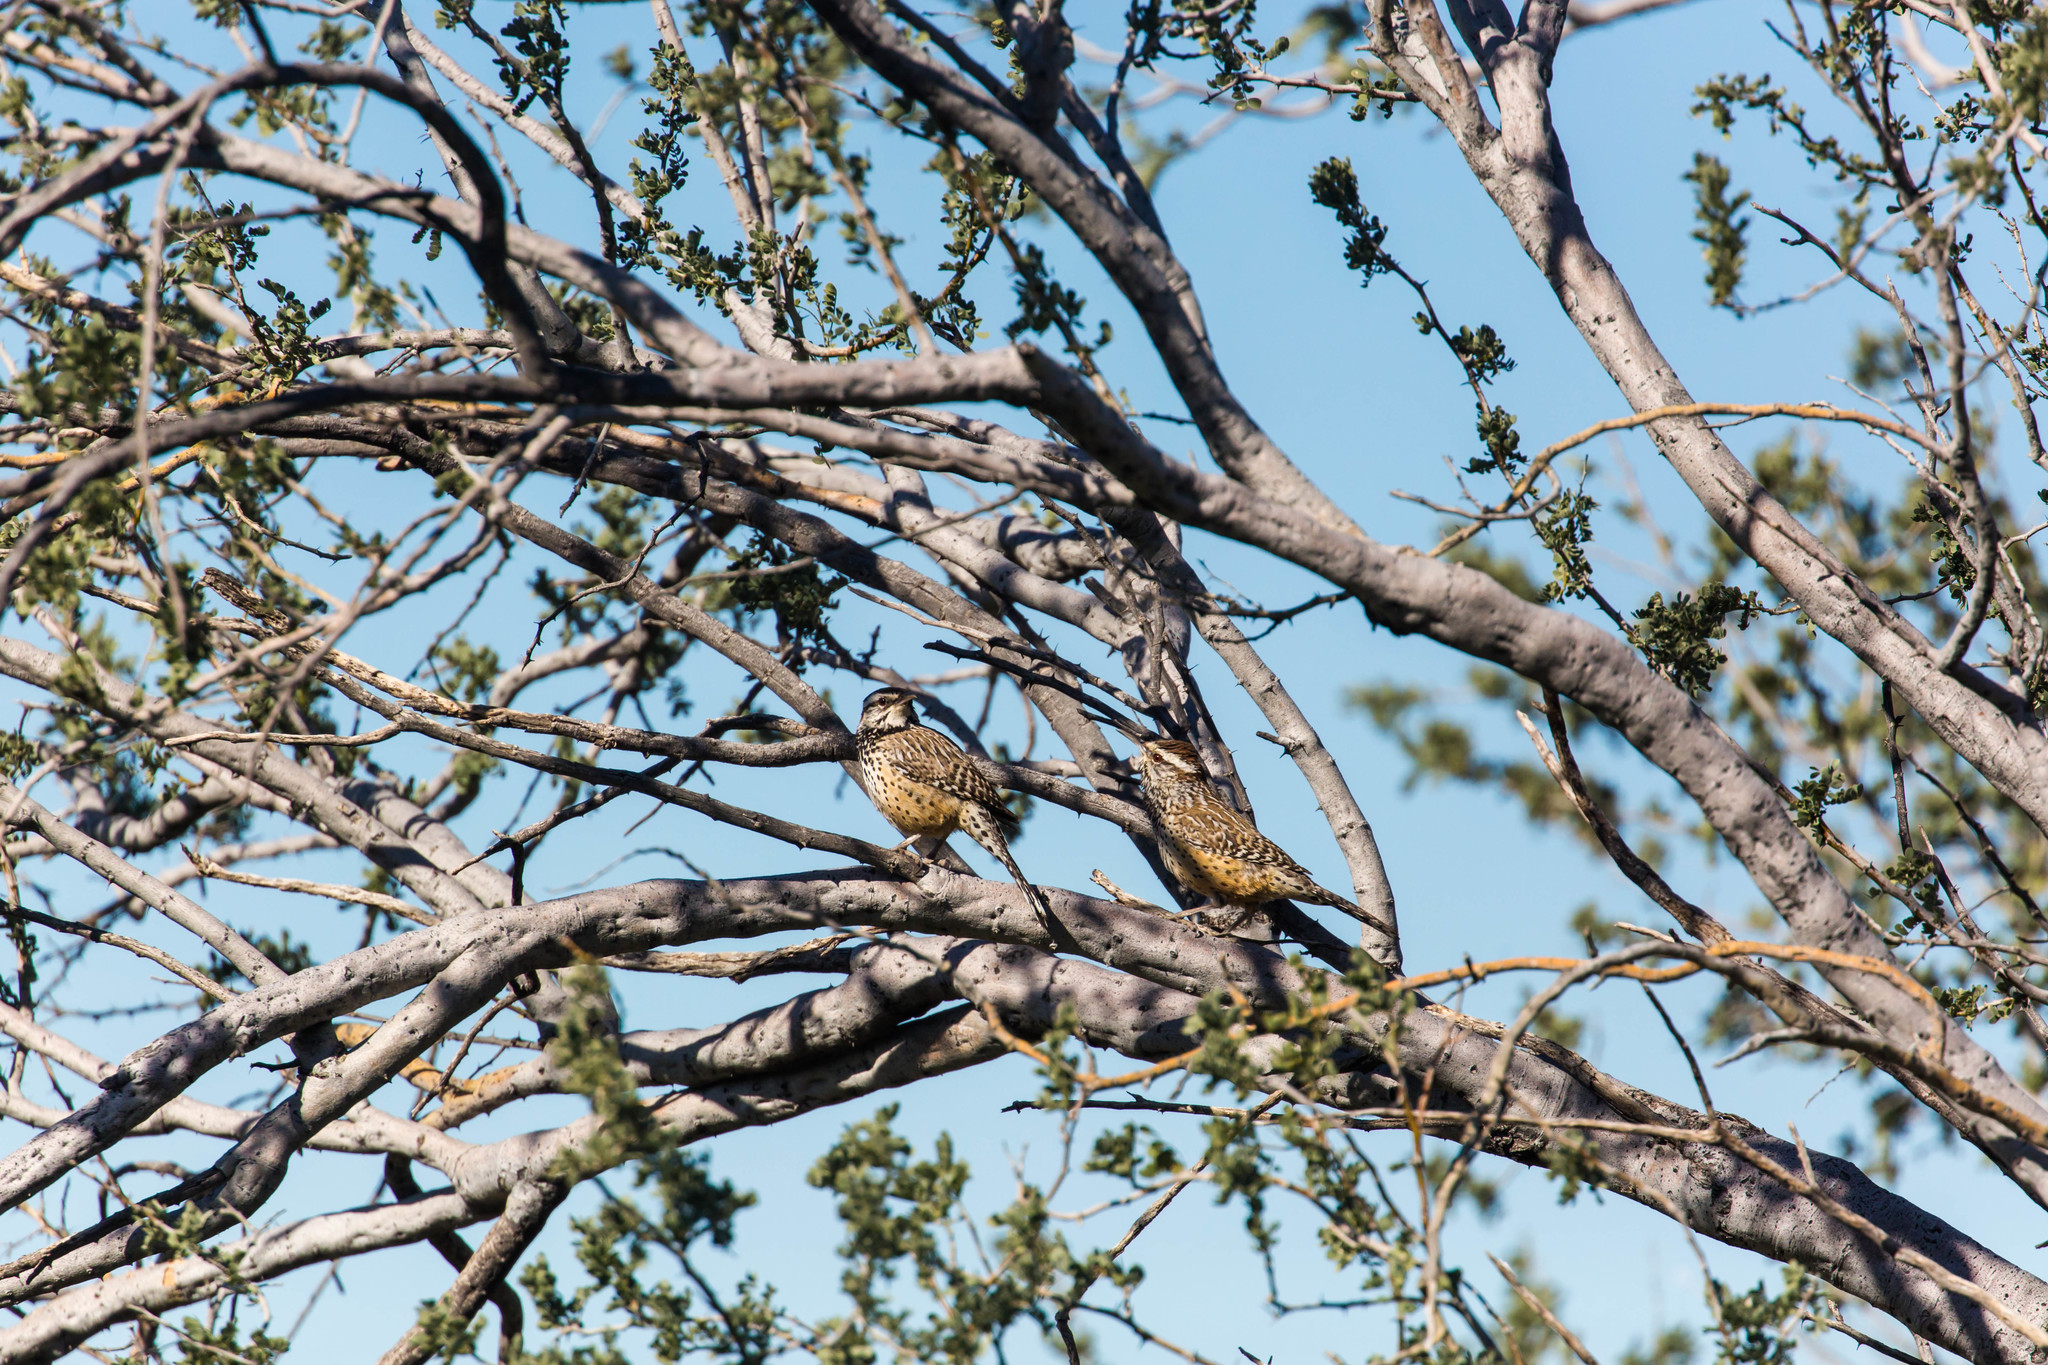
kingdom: Animalia
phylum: Chordata
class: Aves
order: Passeriformes
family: Troglodytidae
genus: Campylorhynchus
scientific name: Campylorhynchus brunneicapillus
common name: Cactus wren
